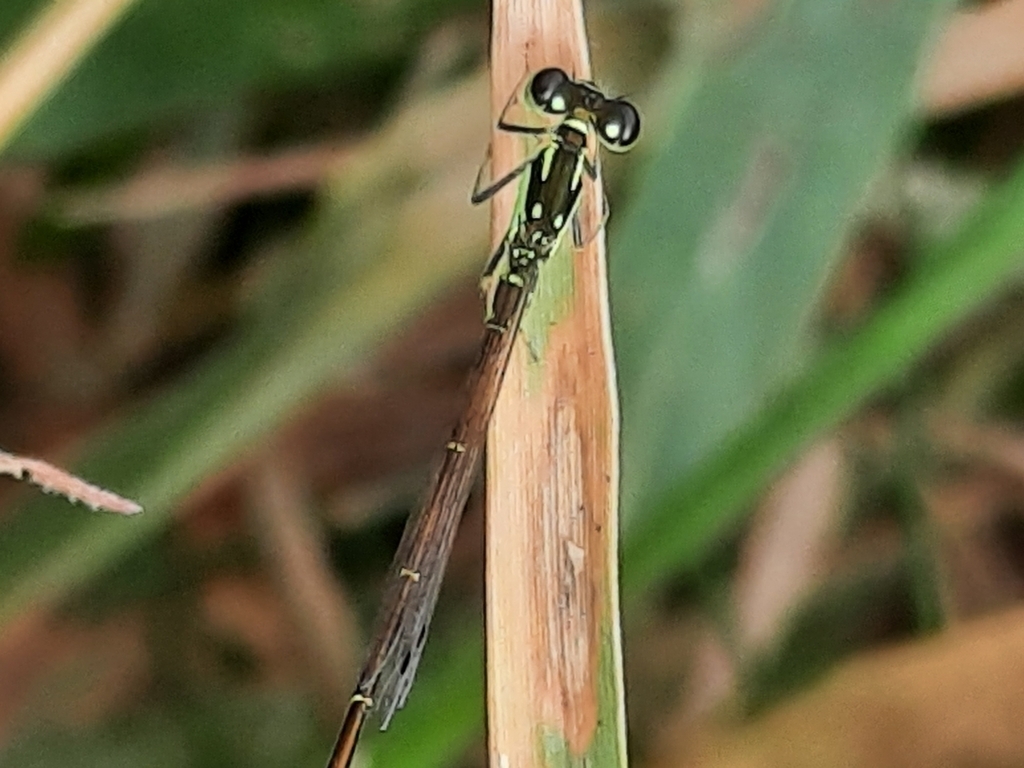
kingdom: Animalia
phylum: Arthropoda
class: Insecta
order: Odonata
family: Coenagrionidae
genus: Ischnura
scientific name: Ischnura posita
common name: Fragile forktail
